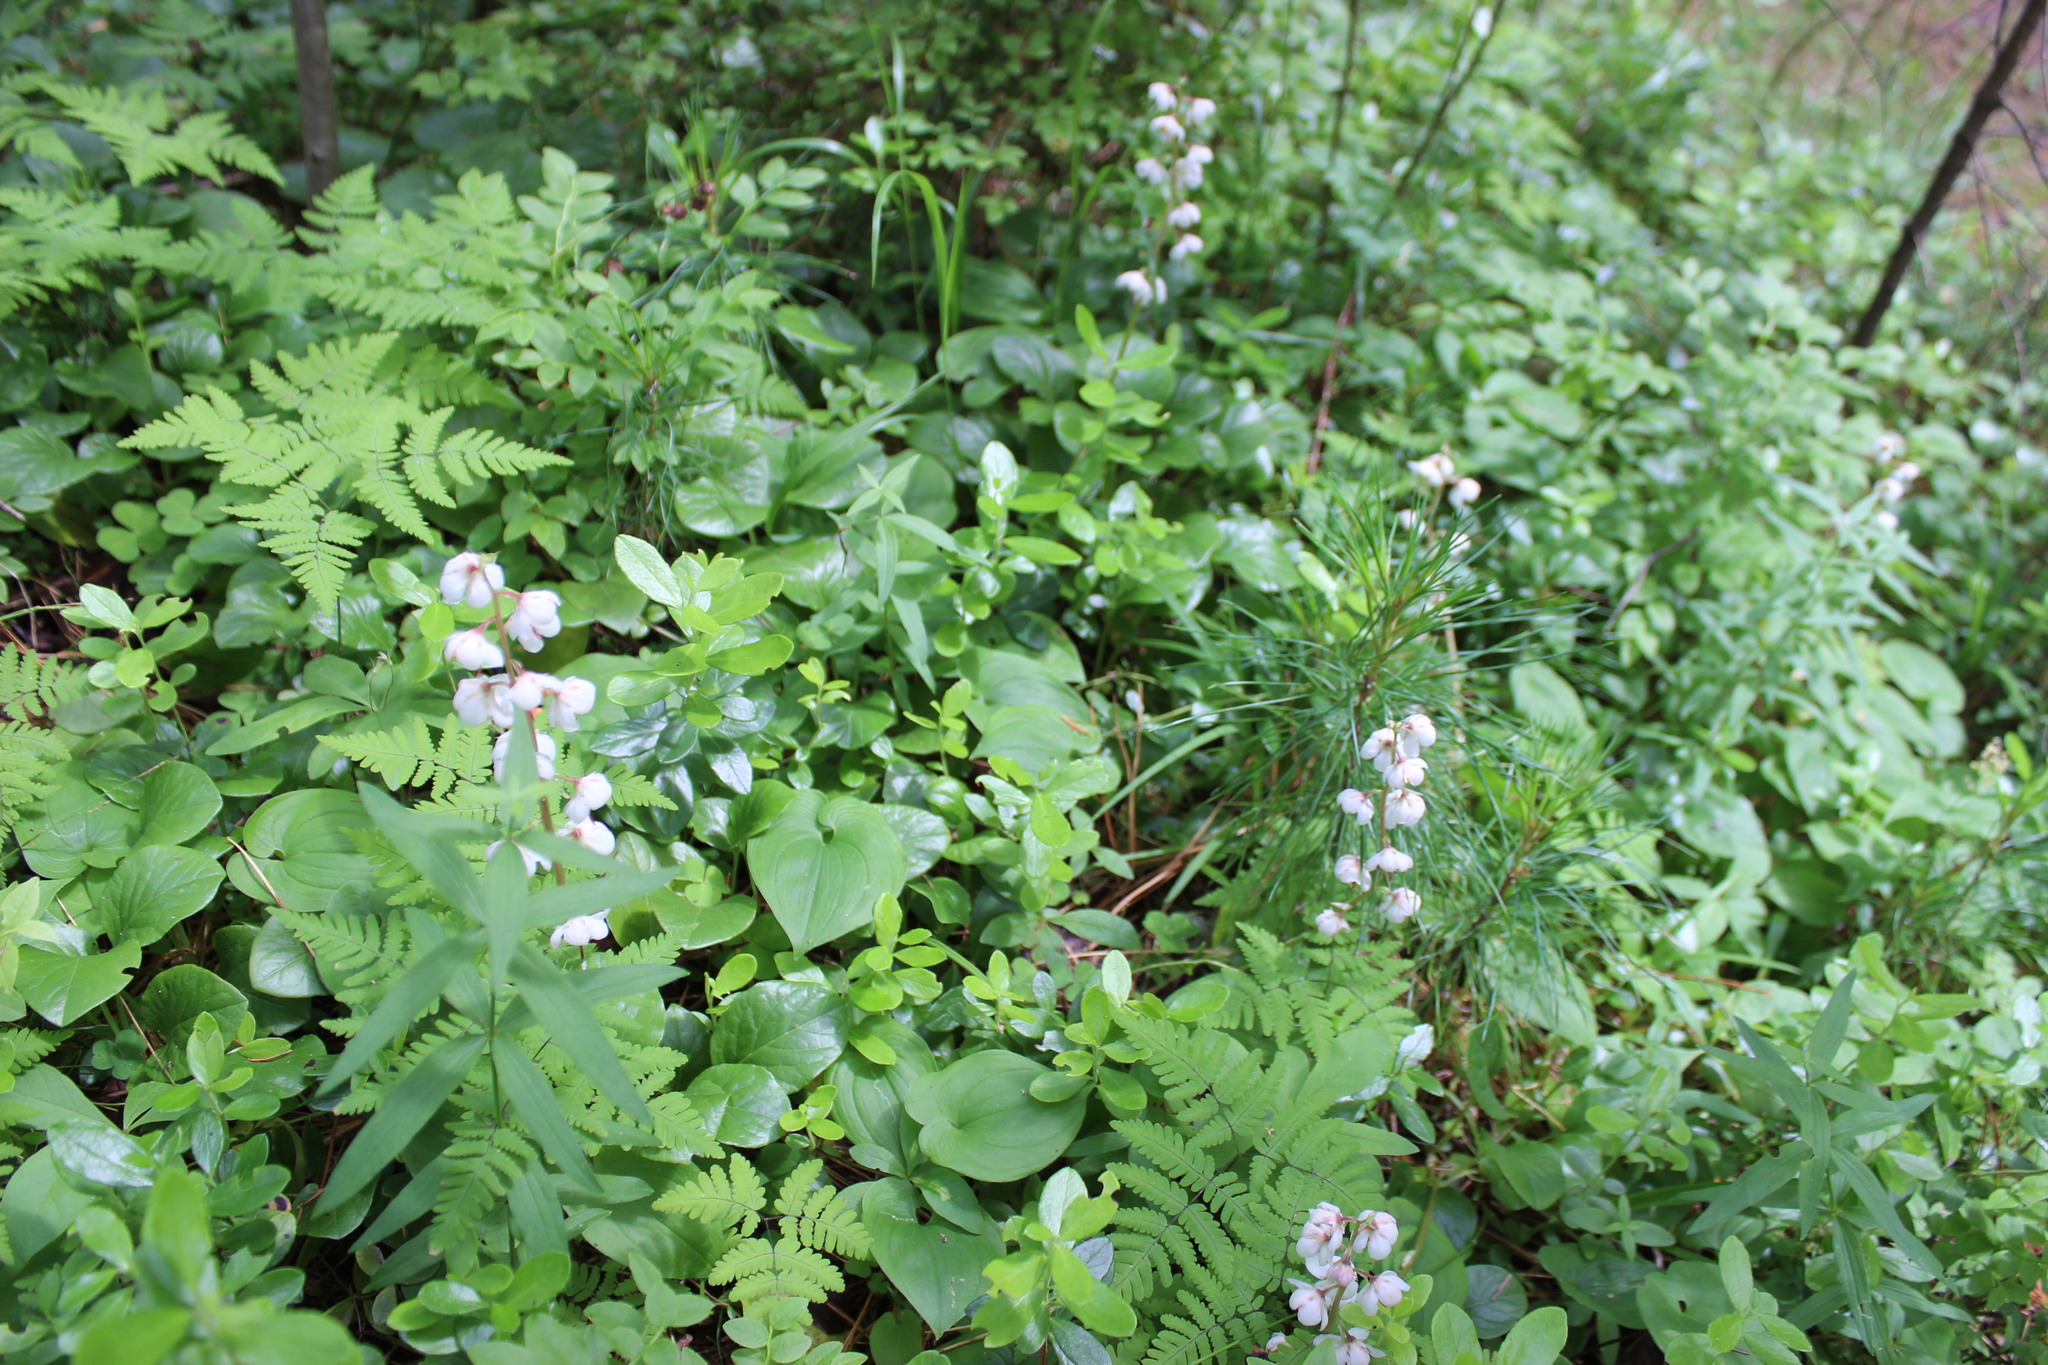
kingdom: Plantae
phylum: Tracheophyta
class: Magnoliopsida
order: Ericales
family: Ericaceae
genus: Pyrola
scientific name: Pyrola rotundifolia
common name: Round-leaved wintergreen
